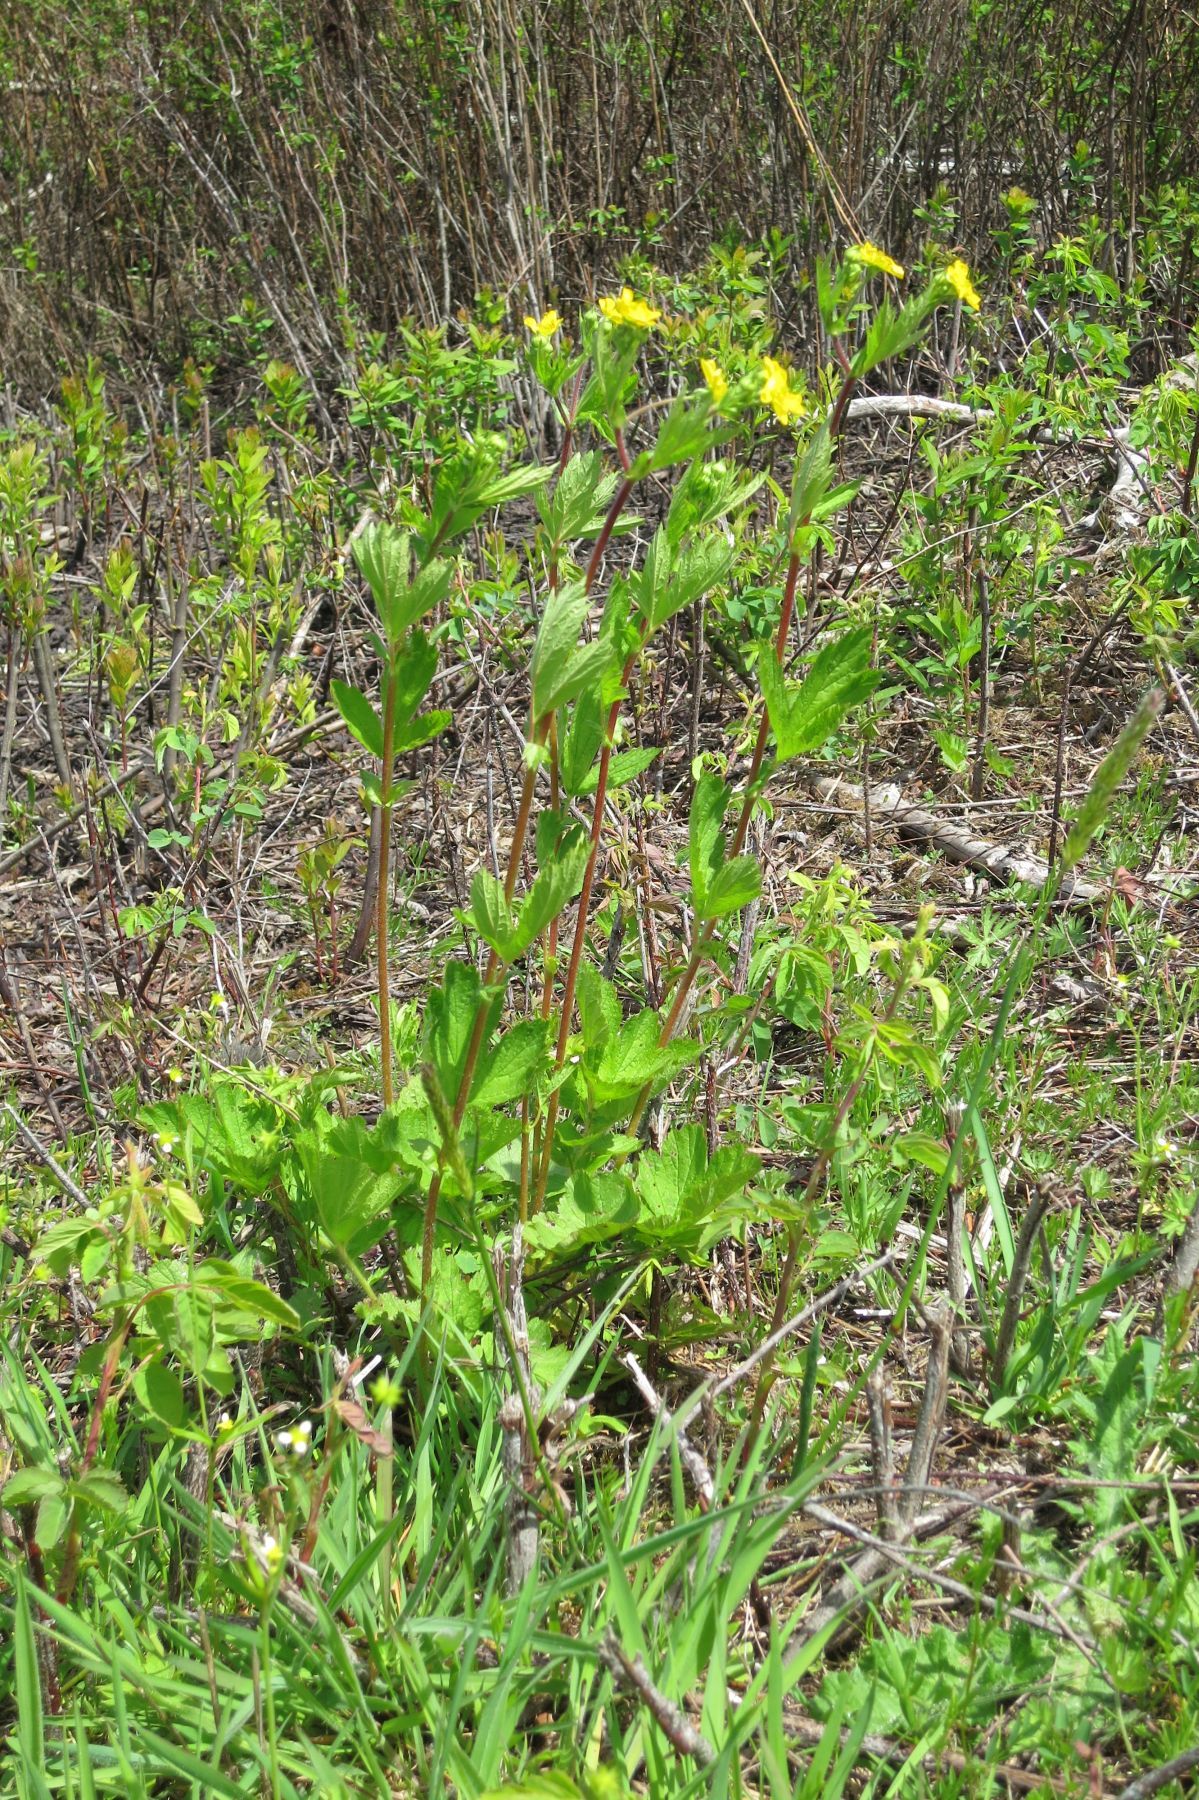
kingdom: Plantae
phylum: Tracheophyta
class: Magnoliopsida
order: Rosales
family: Rosaceae
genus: Geum
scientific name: Geum macrophyllum
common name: Large-leaved avens
